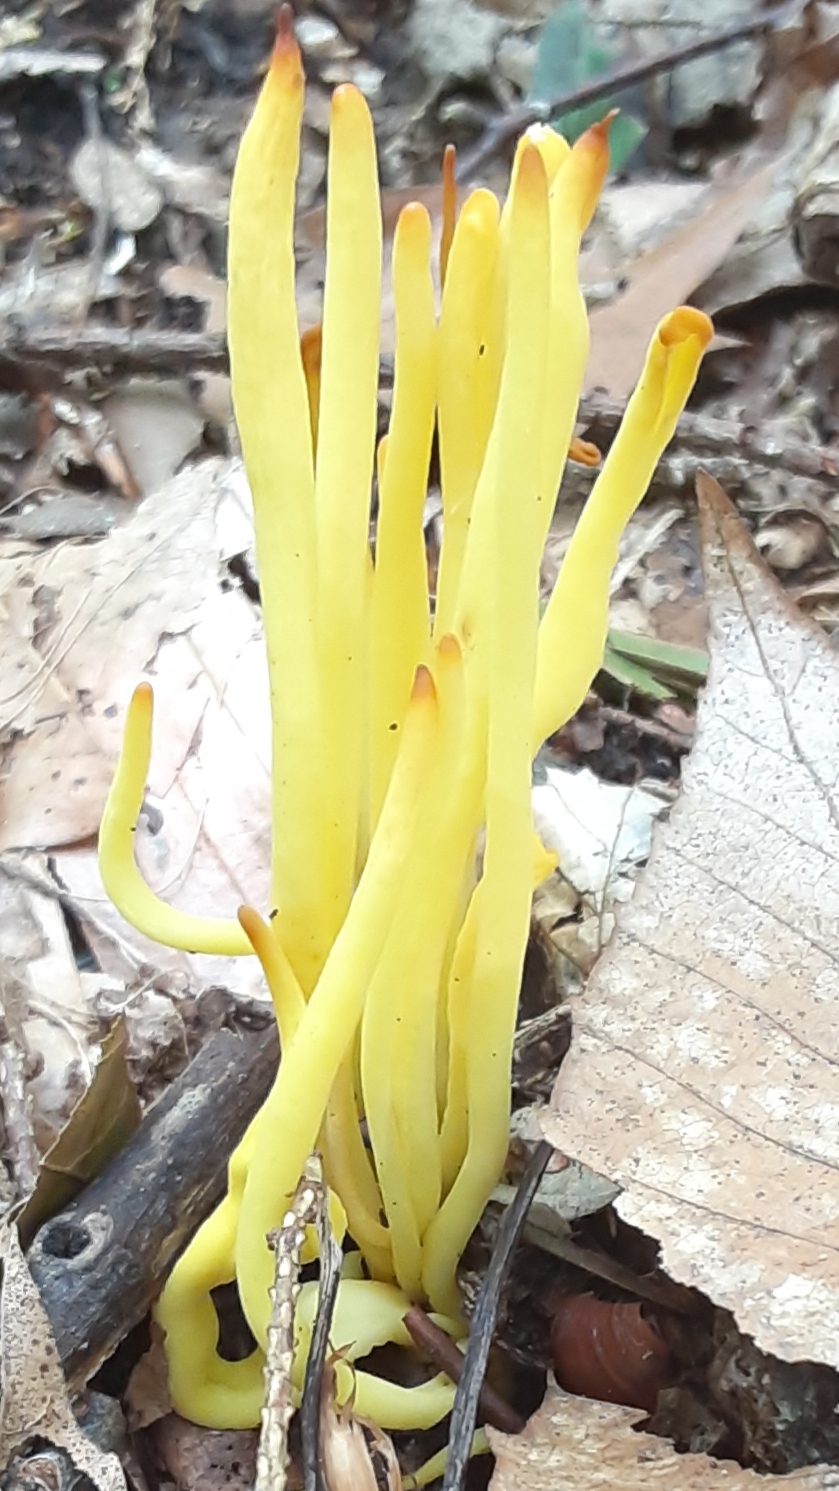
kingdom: Fungi
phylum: Basidiomycota
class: Agaricomycetes
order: Agaricales
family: Clavariaceae
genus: Clavulinopsis
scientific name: Clavulinopsis fusiformis
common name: Golden spindles
